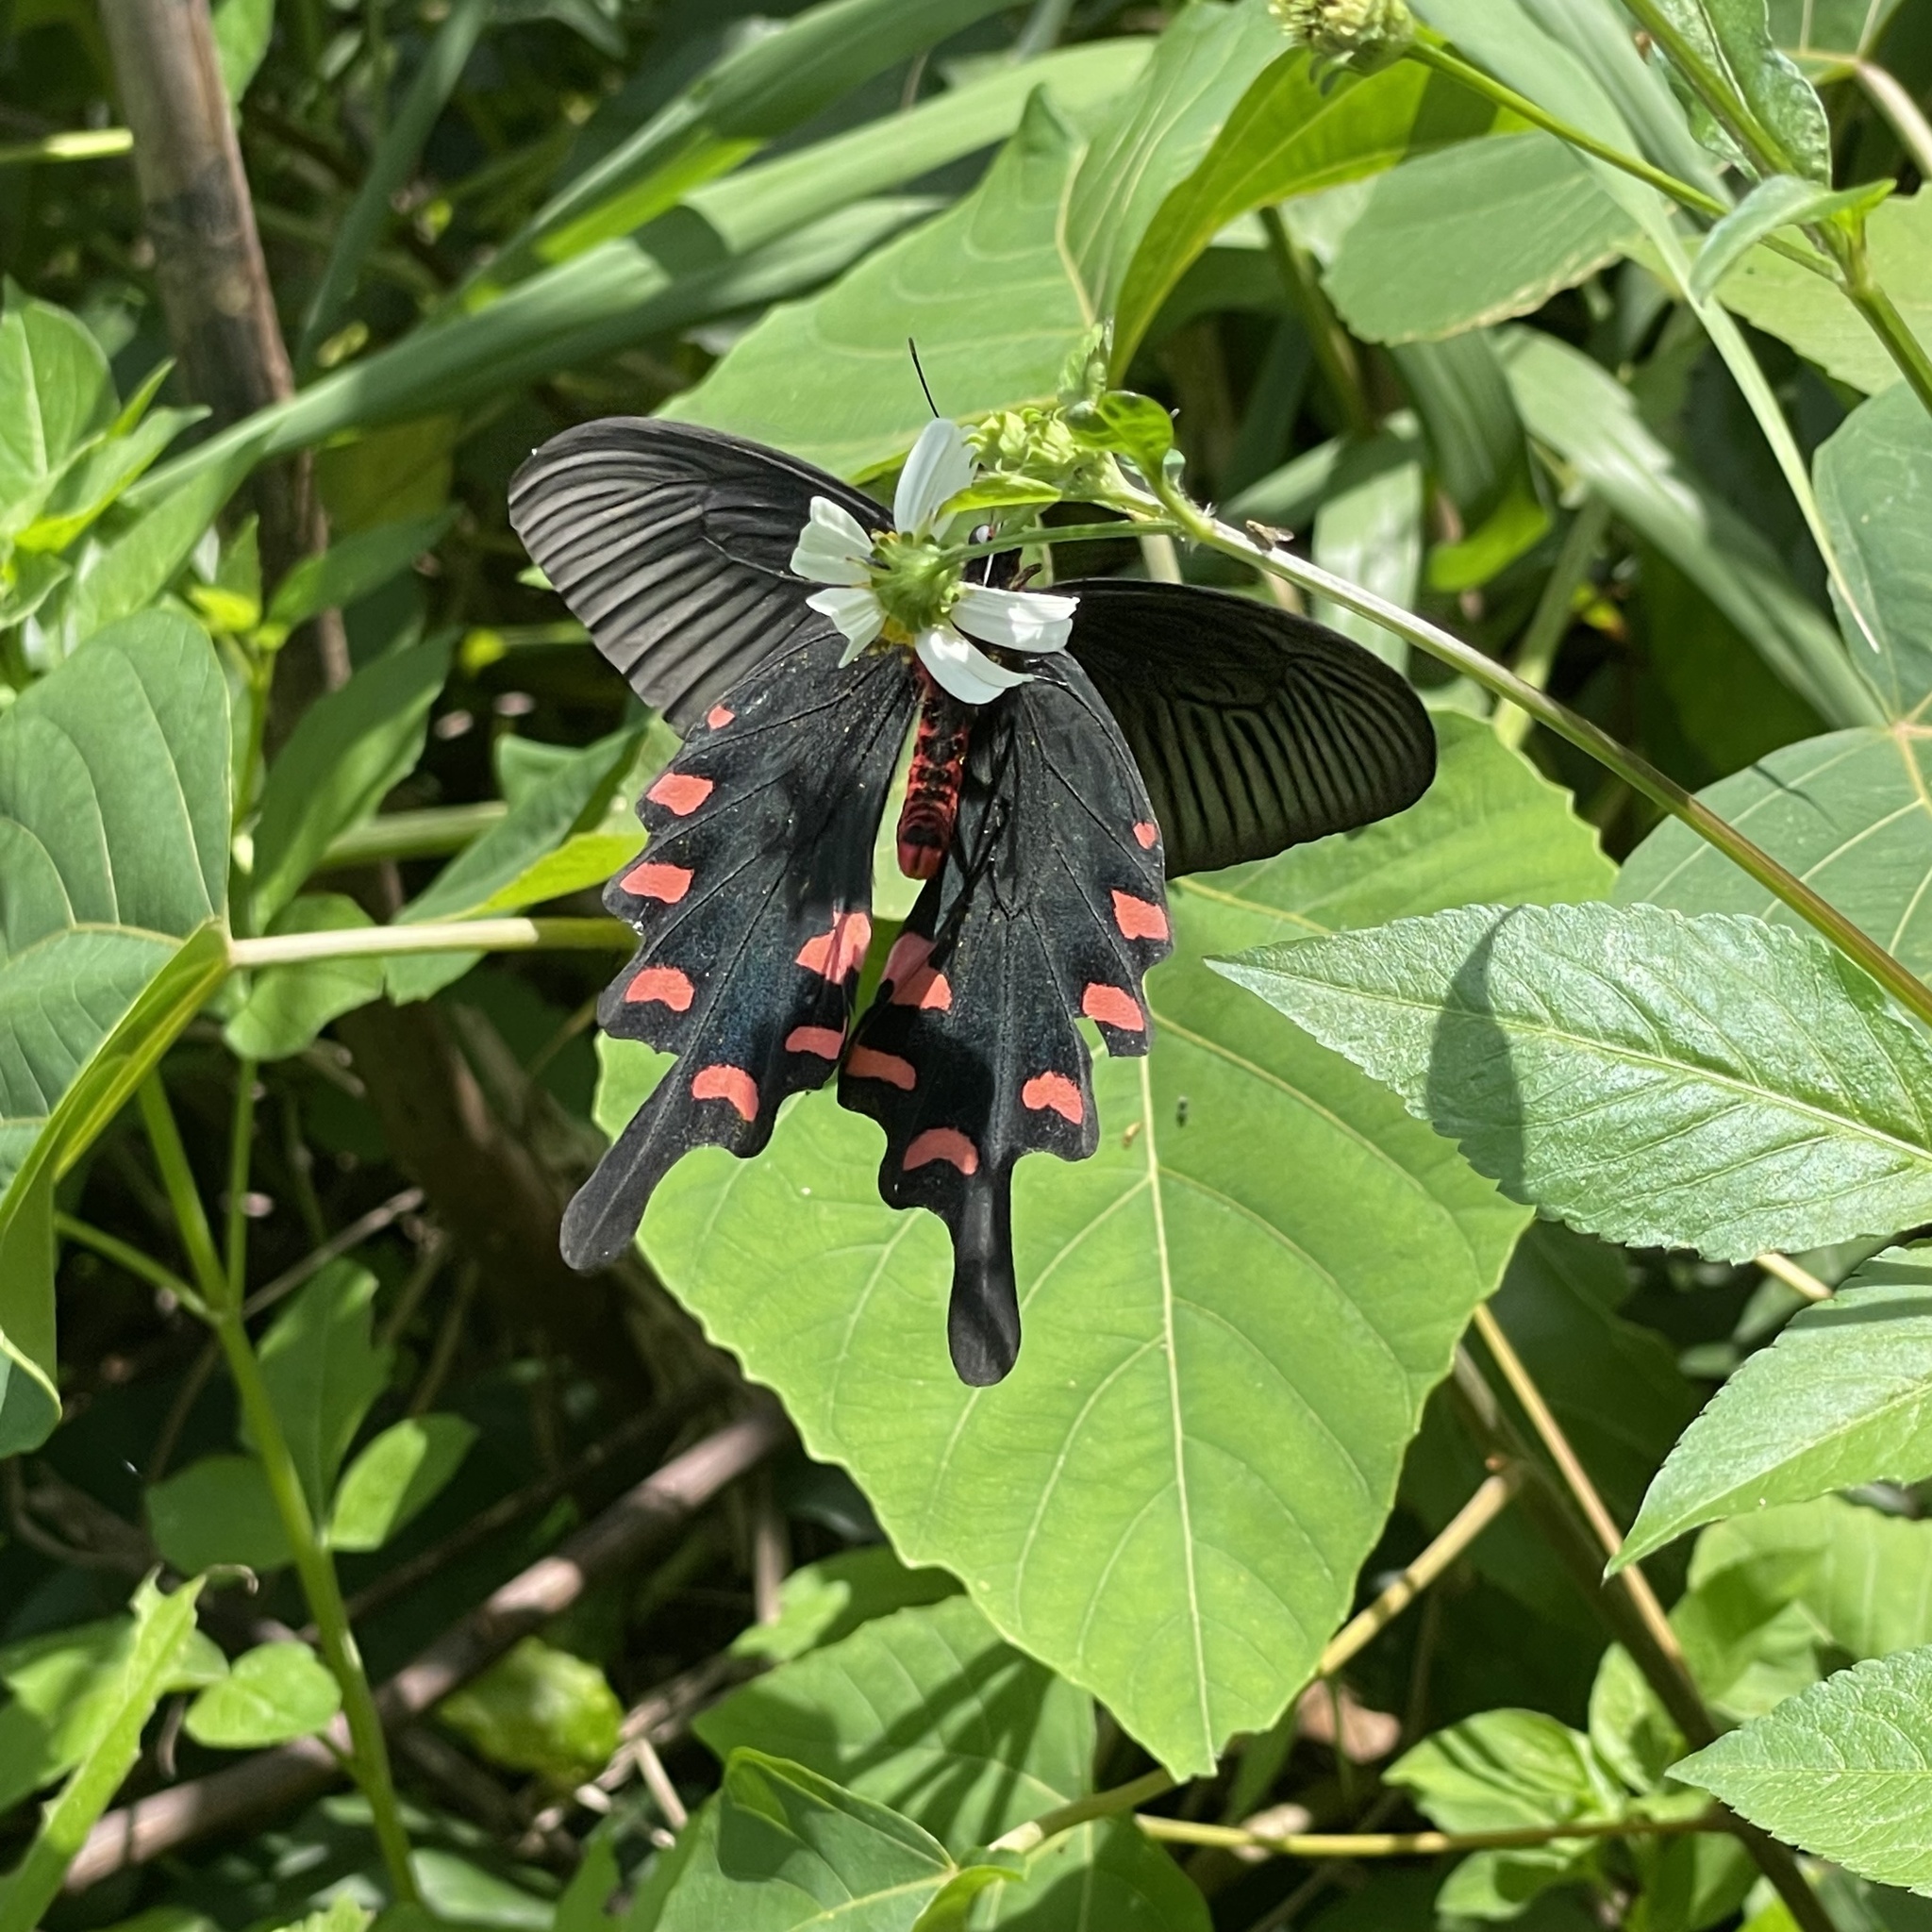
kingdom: Animalia
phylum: Arthropoda
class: Insecta
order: Lepidoptera
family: Papilionidae
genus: Byasa
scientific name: Byasa alcinous
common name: Chinese windmill
